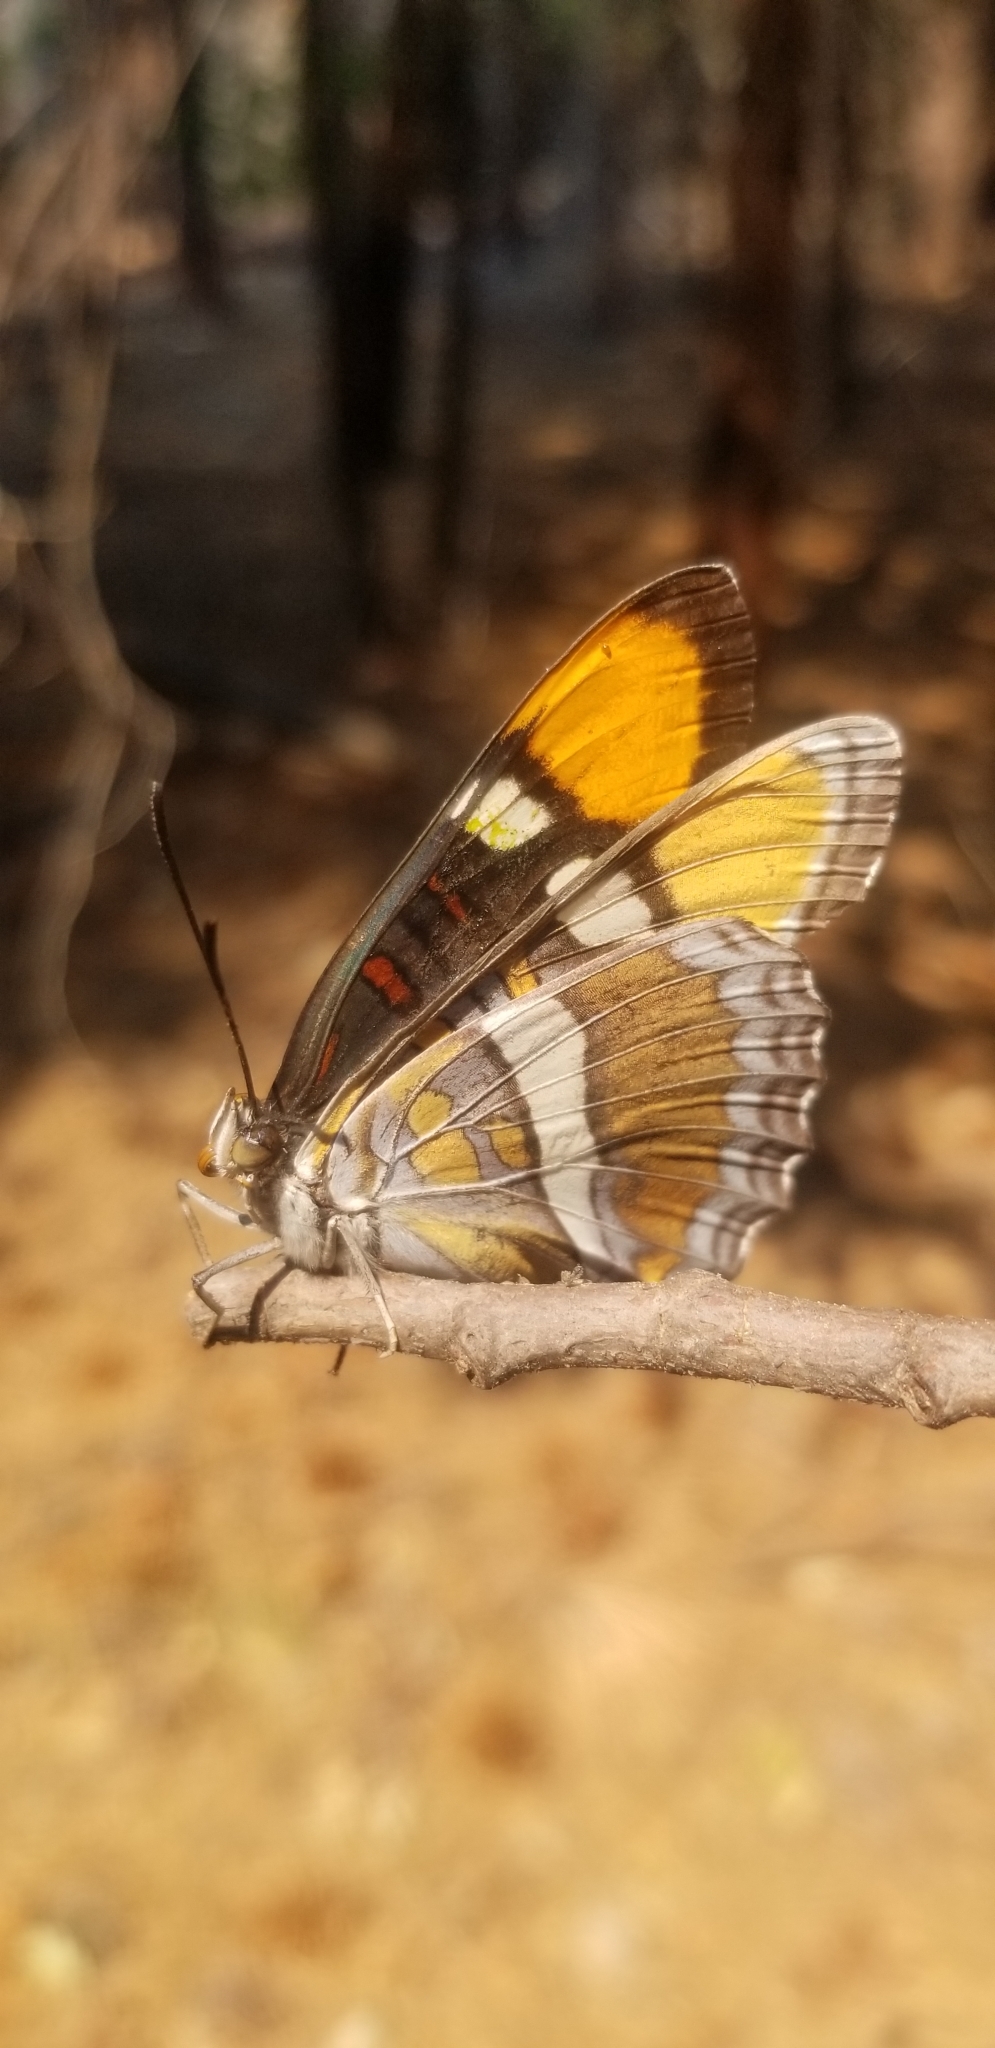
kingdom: Animalia
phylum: Arthropoda
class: Insecta
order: Lepidoptera
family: Nymphalidae
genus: Limenitis
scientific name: Limenitis bredowii
